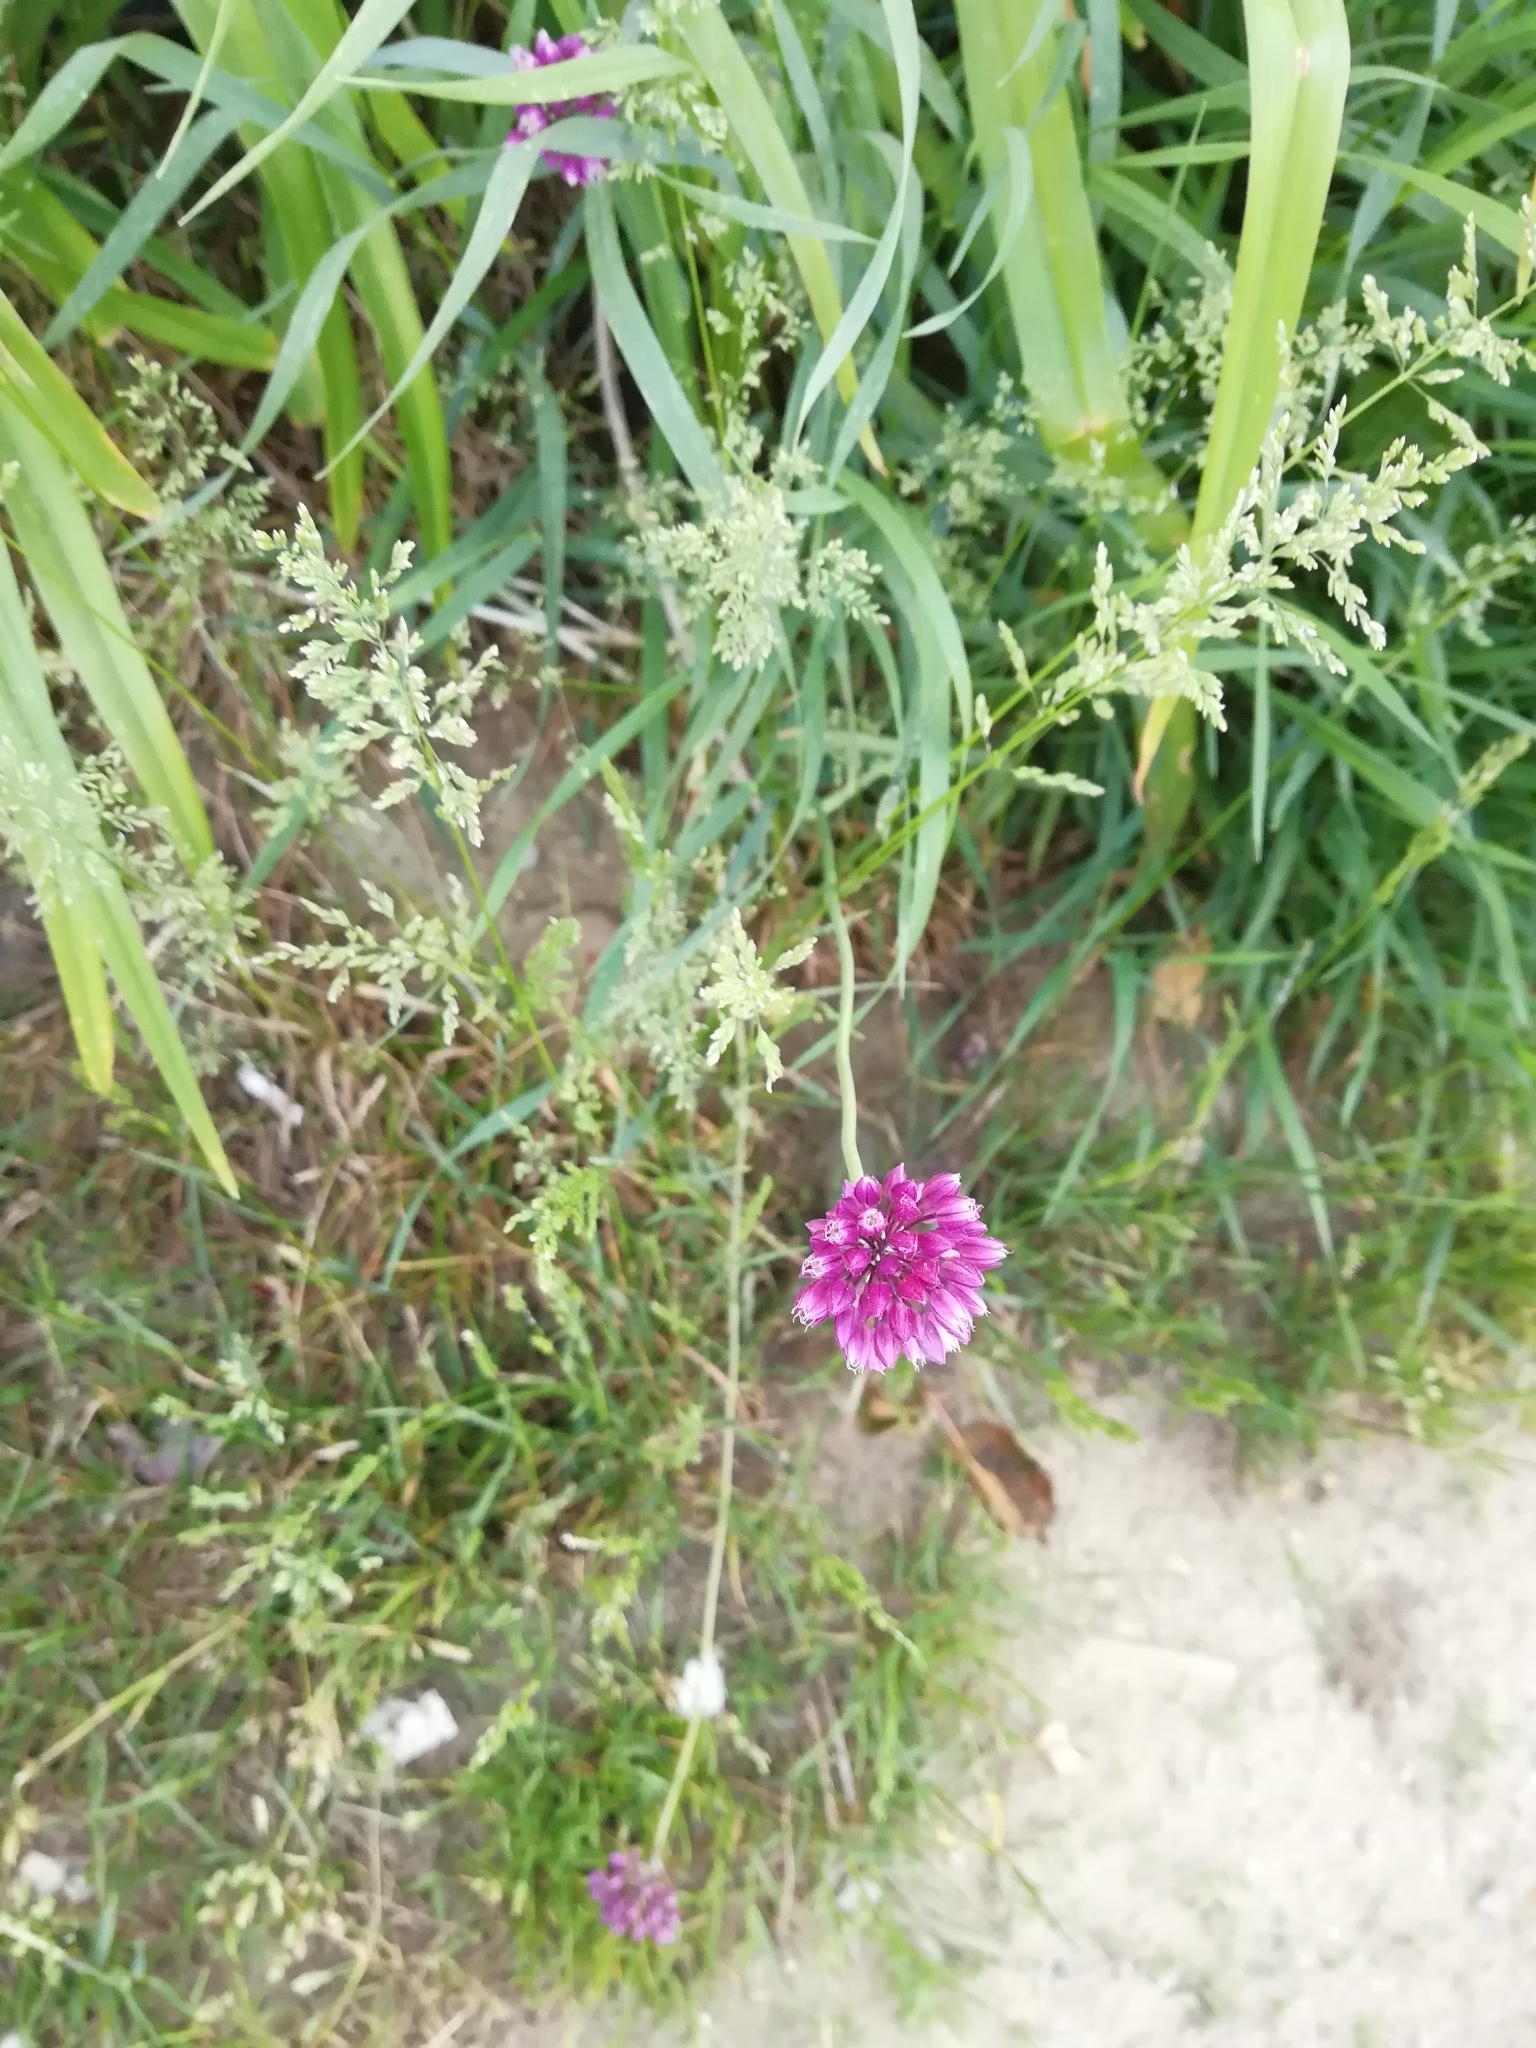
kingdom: Plantae
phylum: Tracheophyta
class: Liliopsida
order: Asparagales
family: Amaryllidaceae
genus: Allium
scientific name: Allium rotundum
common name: Sand leek
